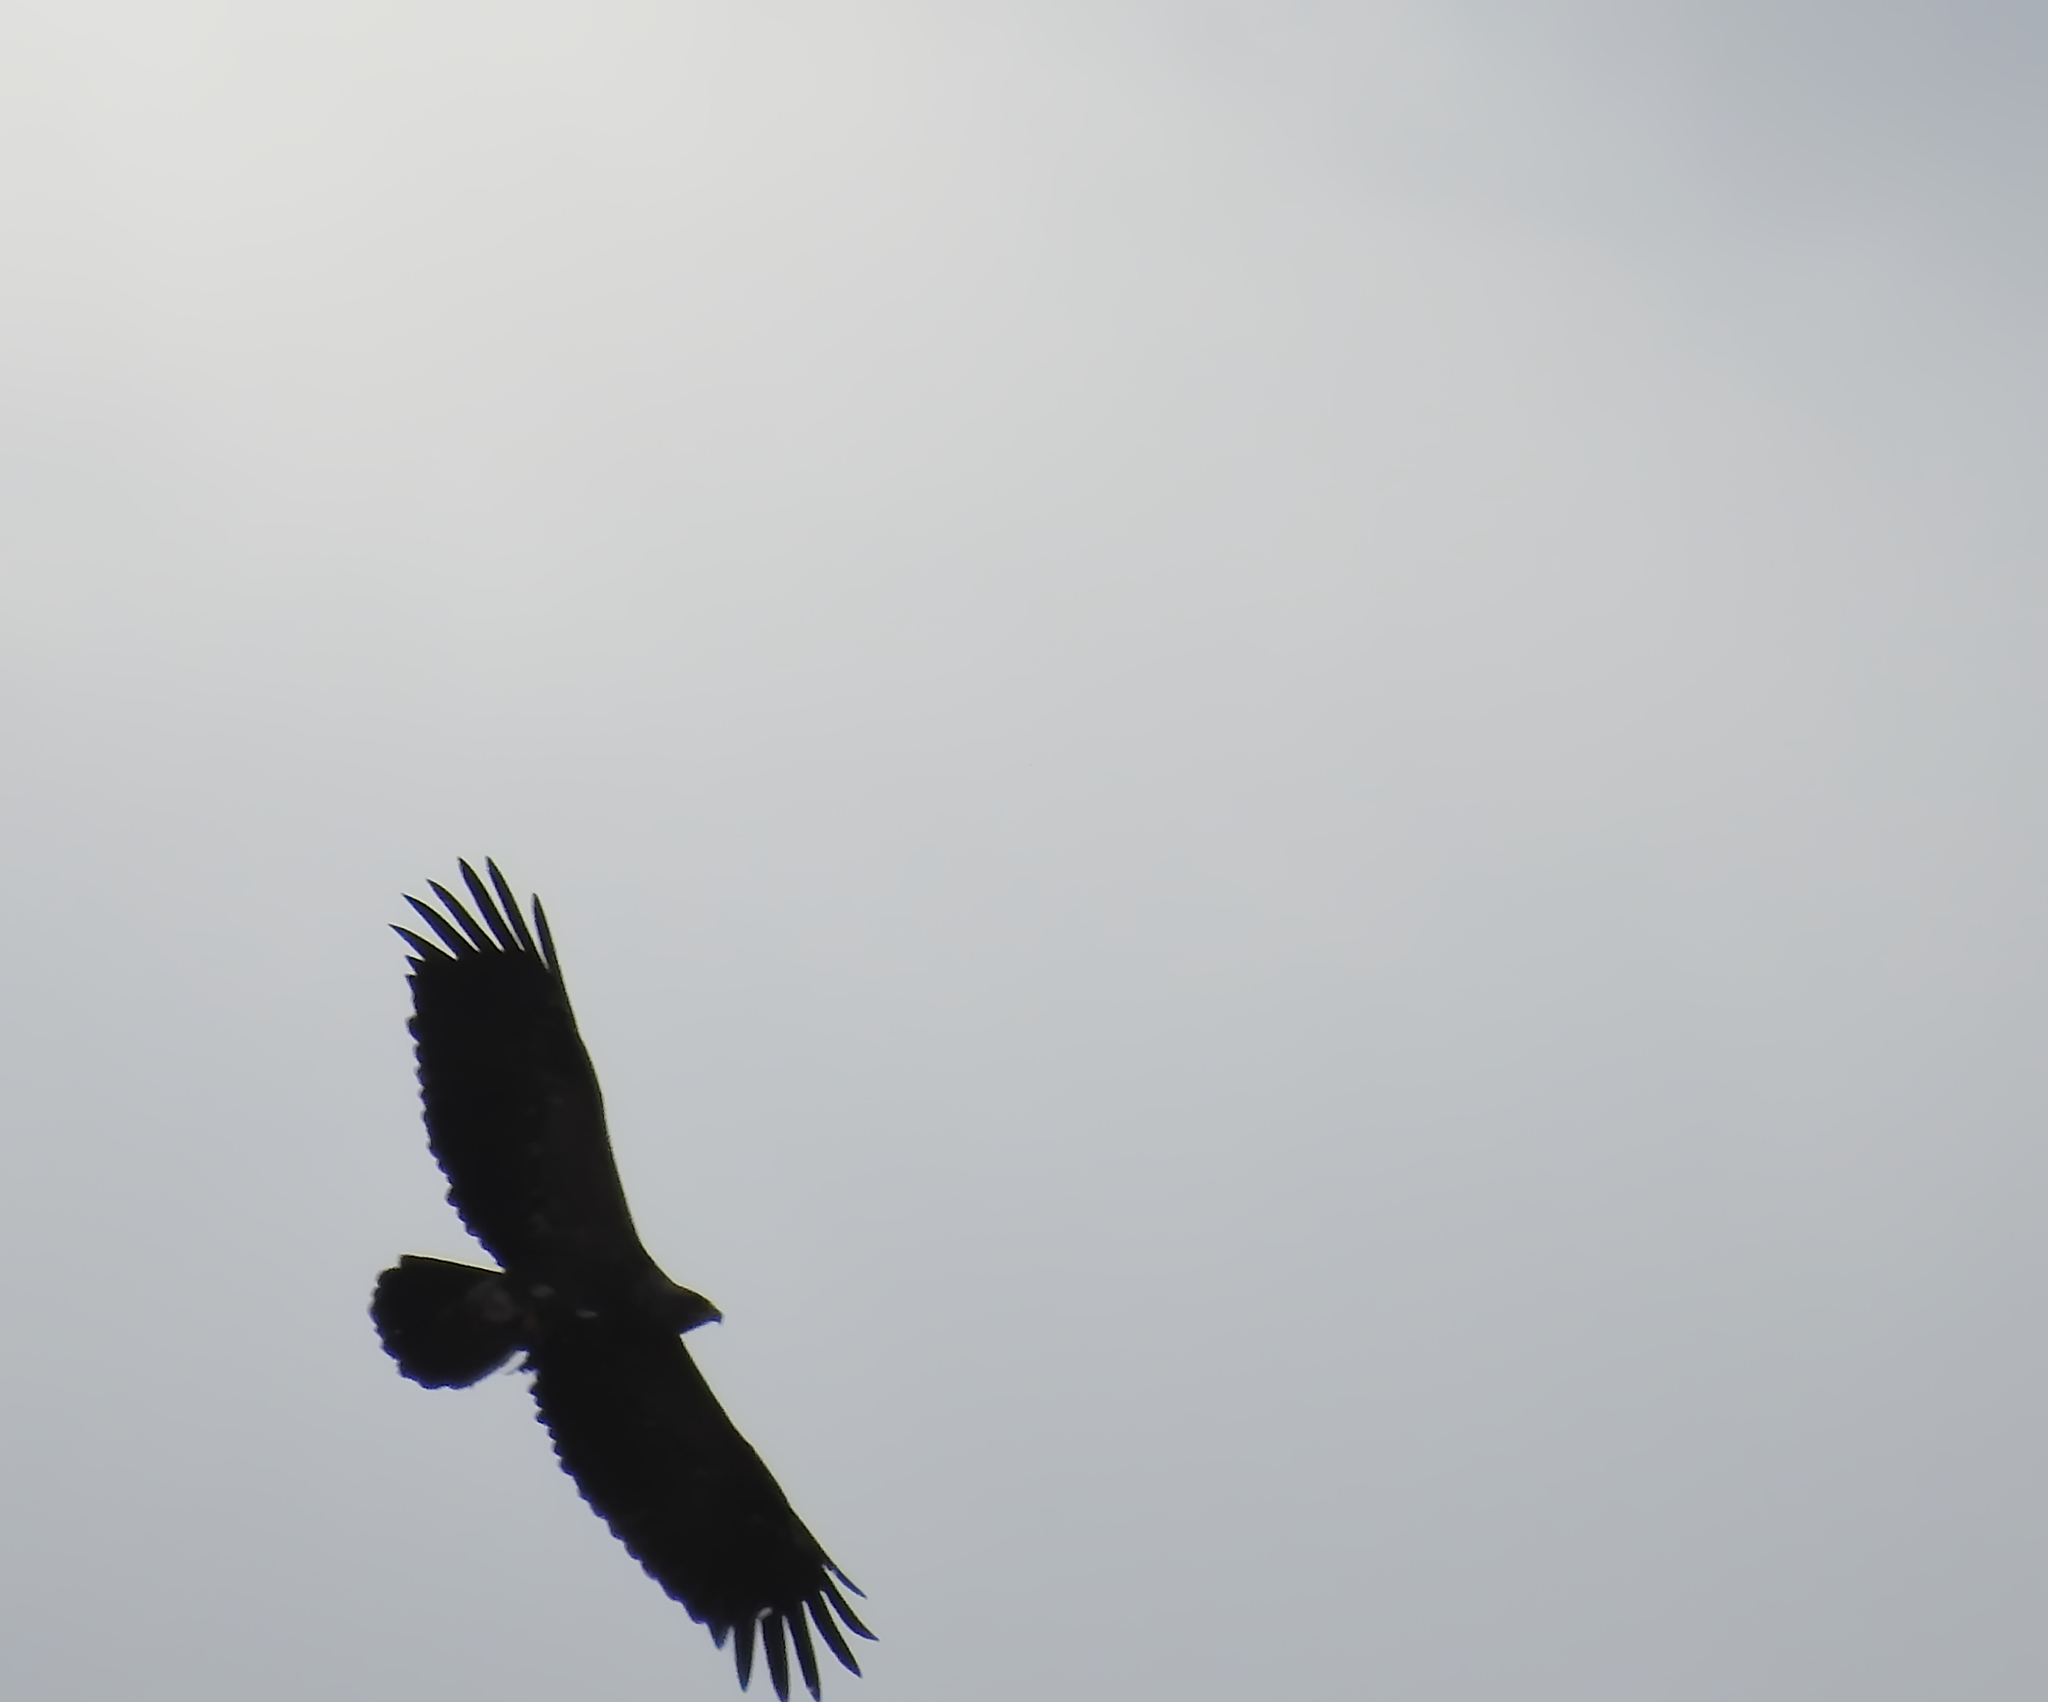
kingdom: Animalia
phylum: Chordata
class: Aves
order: Accipitriformes
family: Accipitridae
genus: Aquila
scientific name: Aquila pomarina
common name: Lesser spotted eagle
